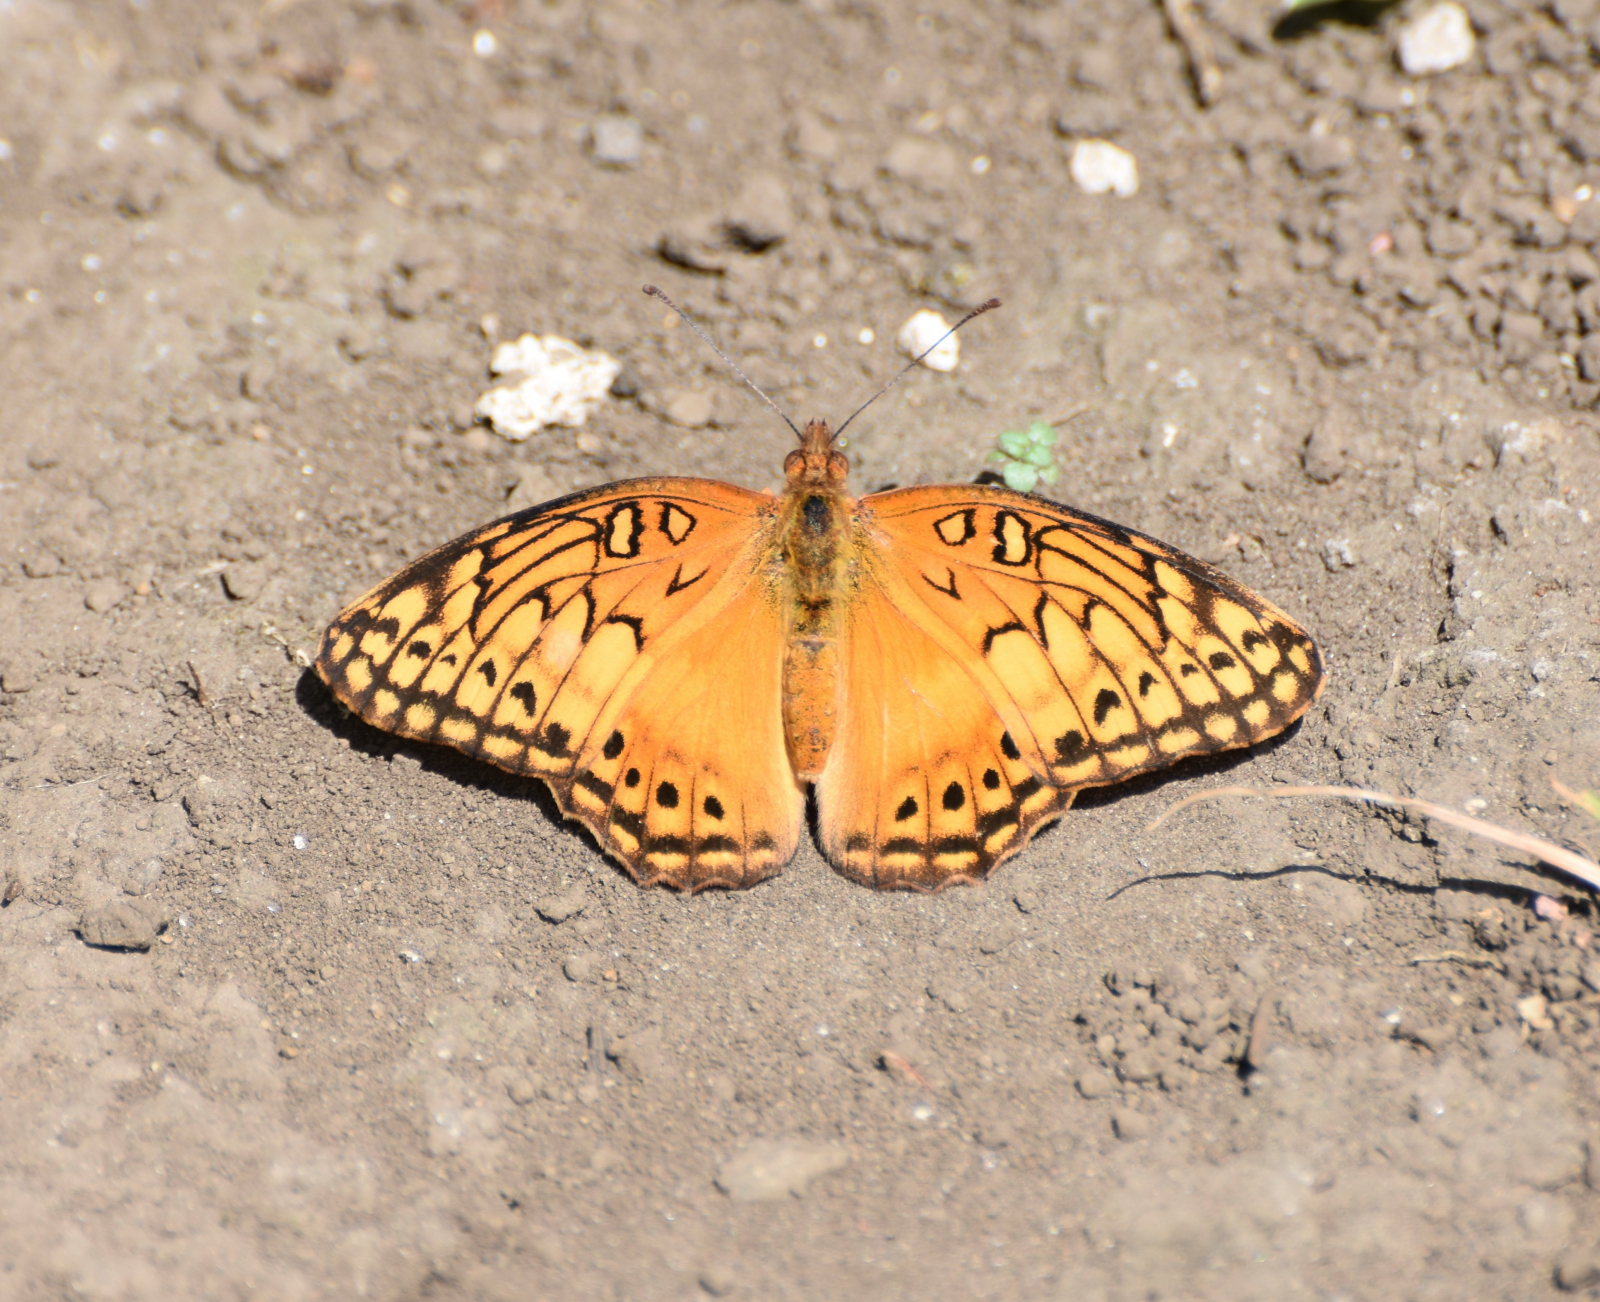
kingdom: Animalia
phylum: Arthropoda
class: Insecta
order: Lepidoptera
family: Nymphalidae
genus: Euptoieta
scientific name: Euptoieta hegesia
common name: Mexican fritillary
